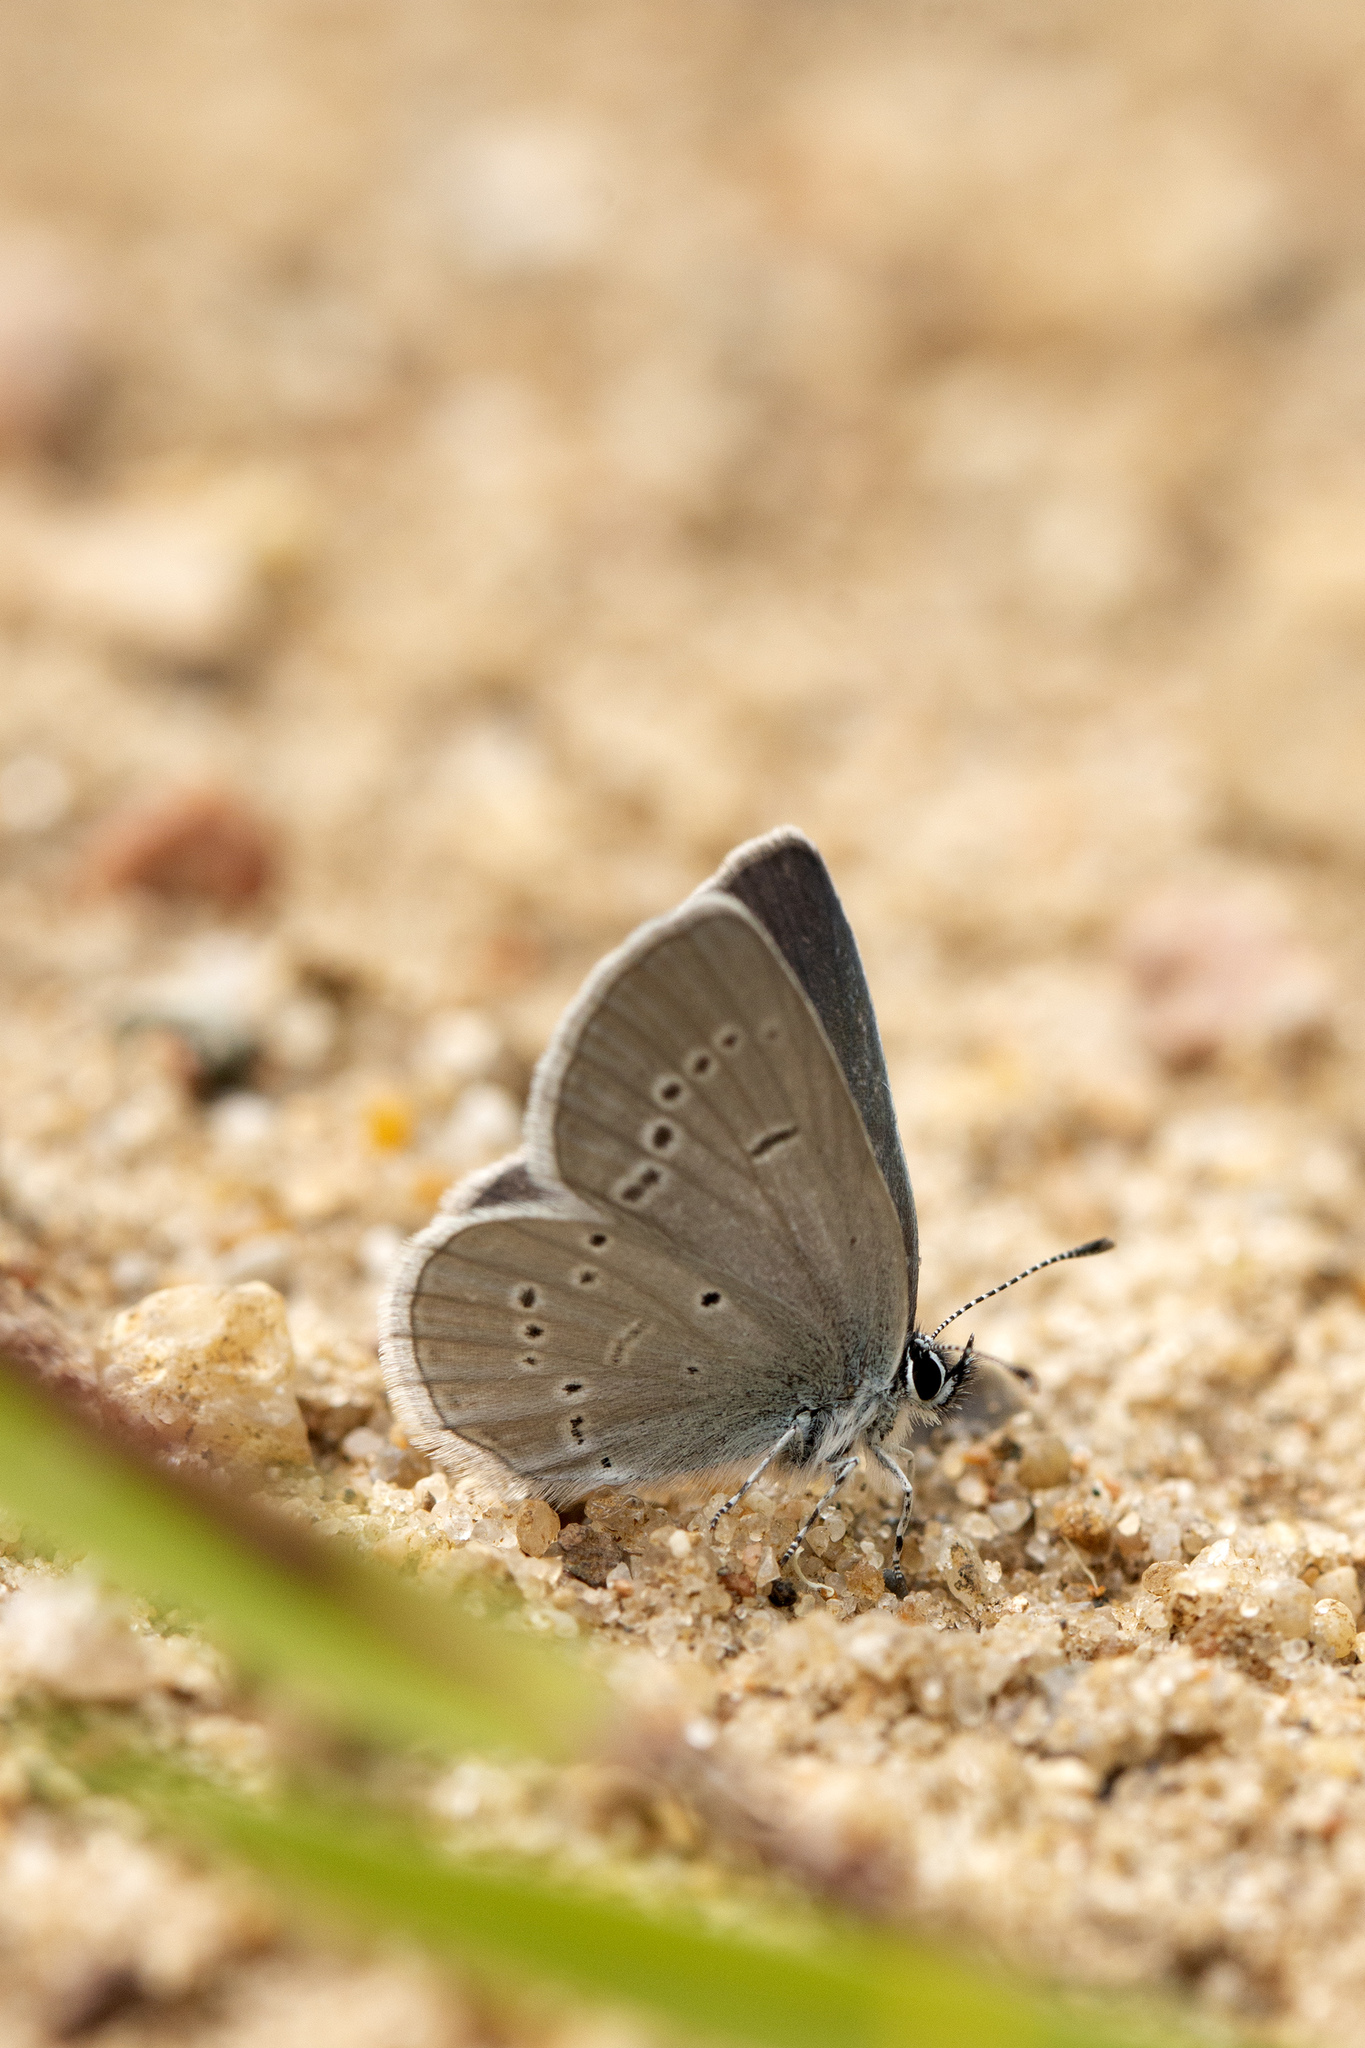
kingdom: Animalia
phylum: Arthropoda
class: Insecta
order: Lepidoptera
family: Lycaenidae
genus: Cupido
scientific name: Cupido minimus
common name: Small blue
